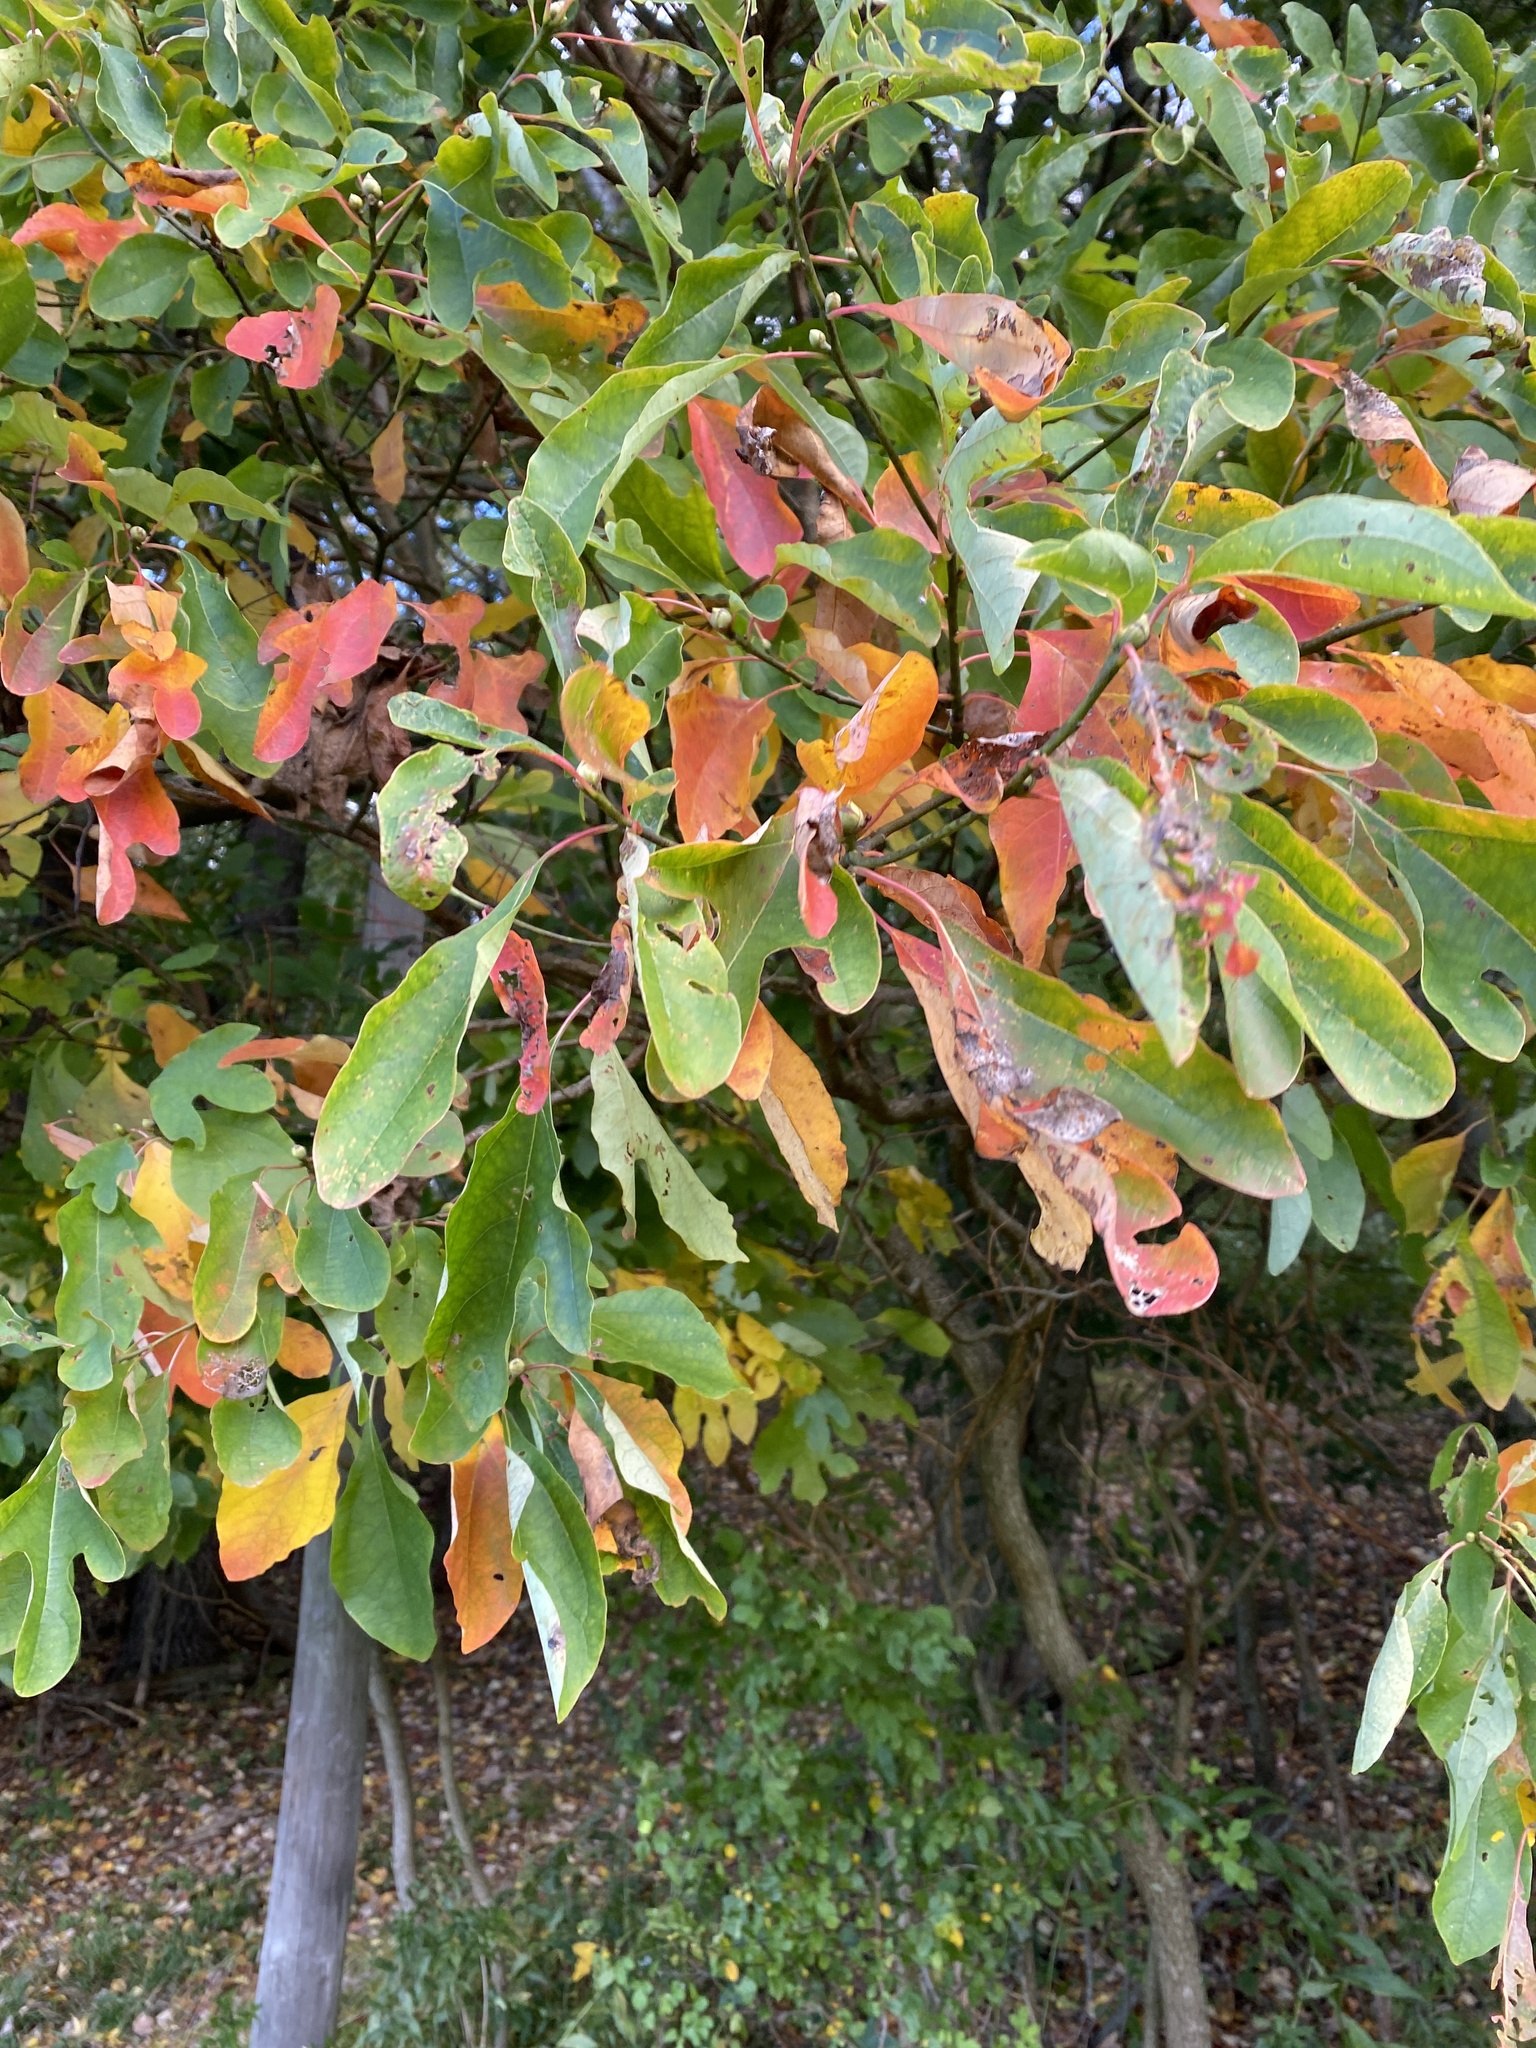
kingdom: Plantae
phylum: Tracheophyta
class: Magnoliopsida
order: Laurales
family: Lauraceae
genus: Sassafras
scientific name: Sassafras albidum
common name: Sassafras
